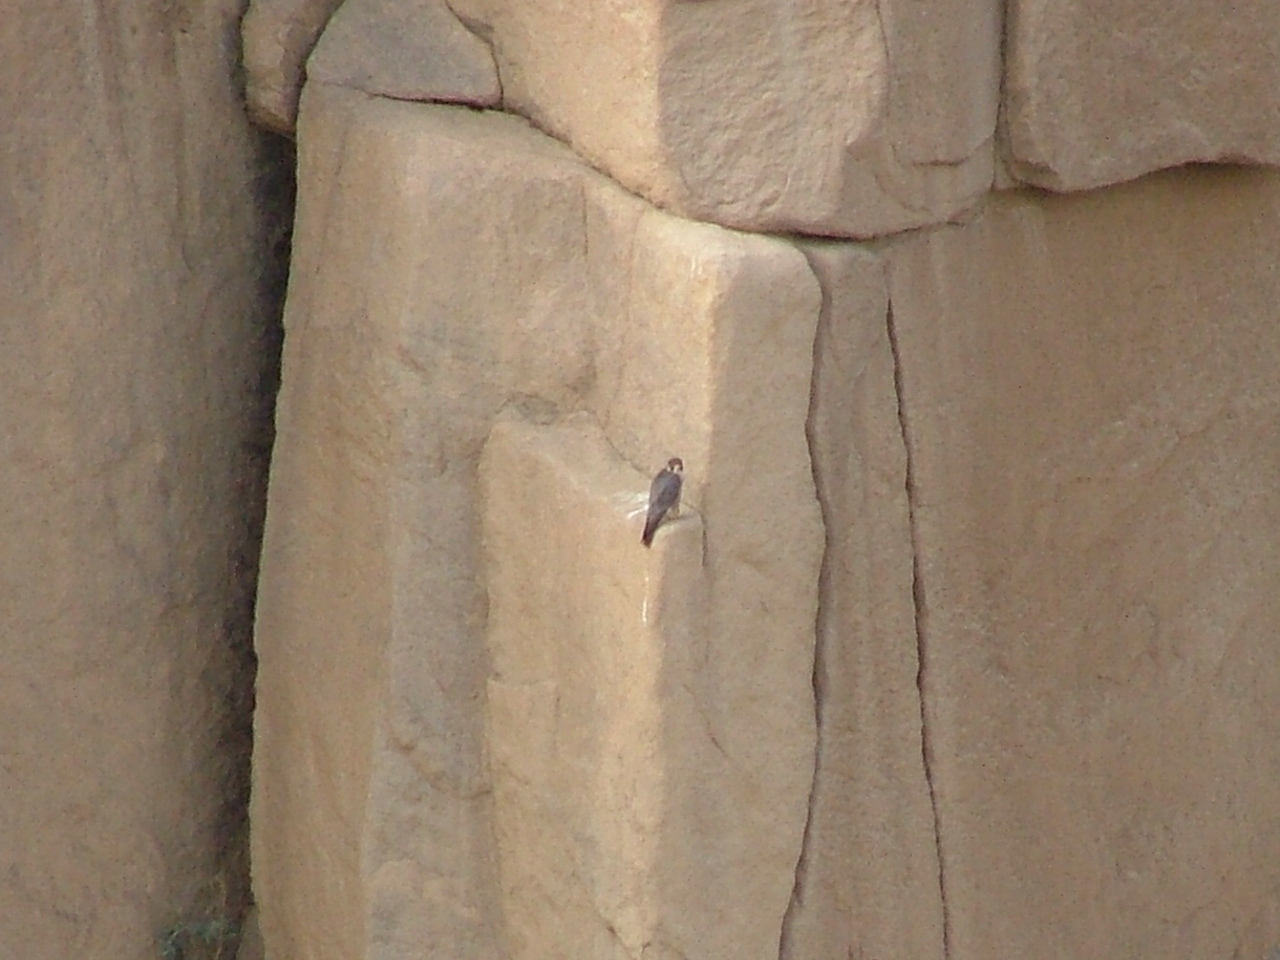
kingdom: Animalia
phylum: Chordata
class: Aves
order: Falconiformes
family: Falconidae
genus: Falco
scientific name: Falco peregrinus
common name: Peregrine falcon
